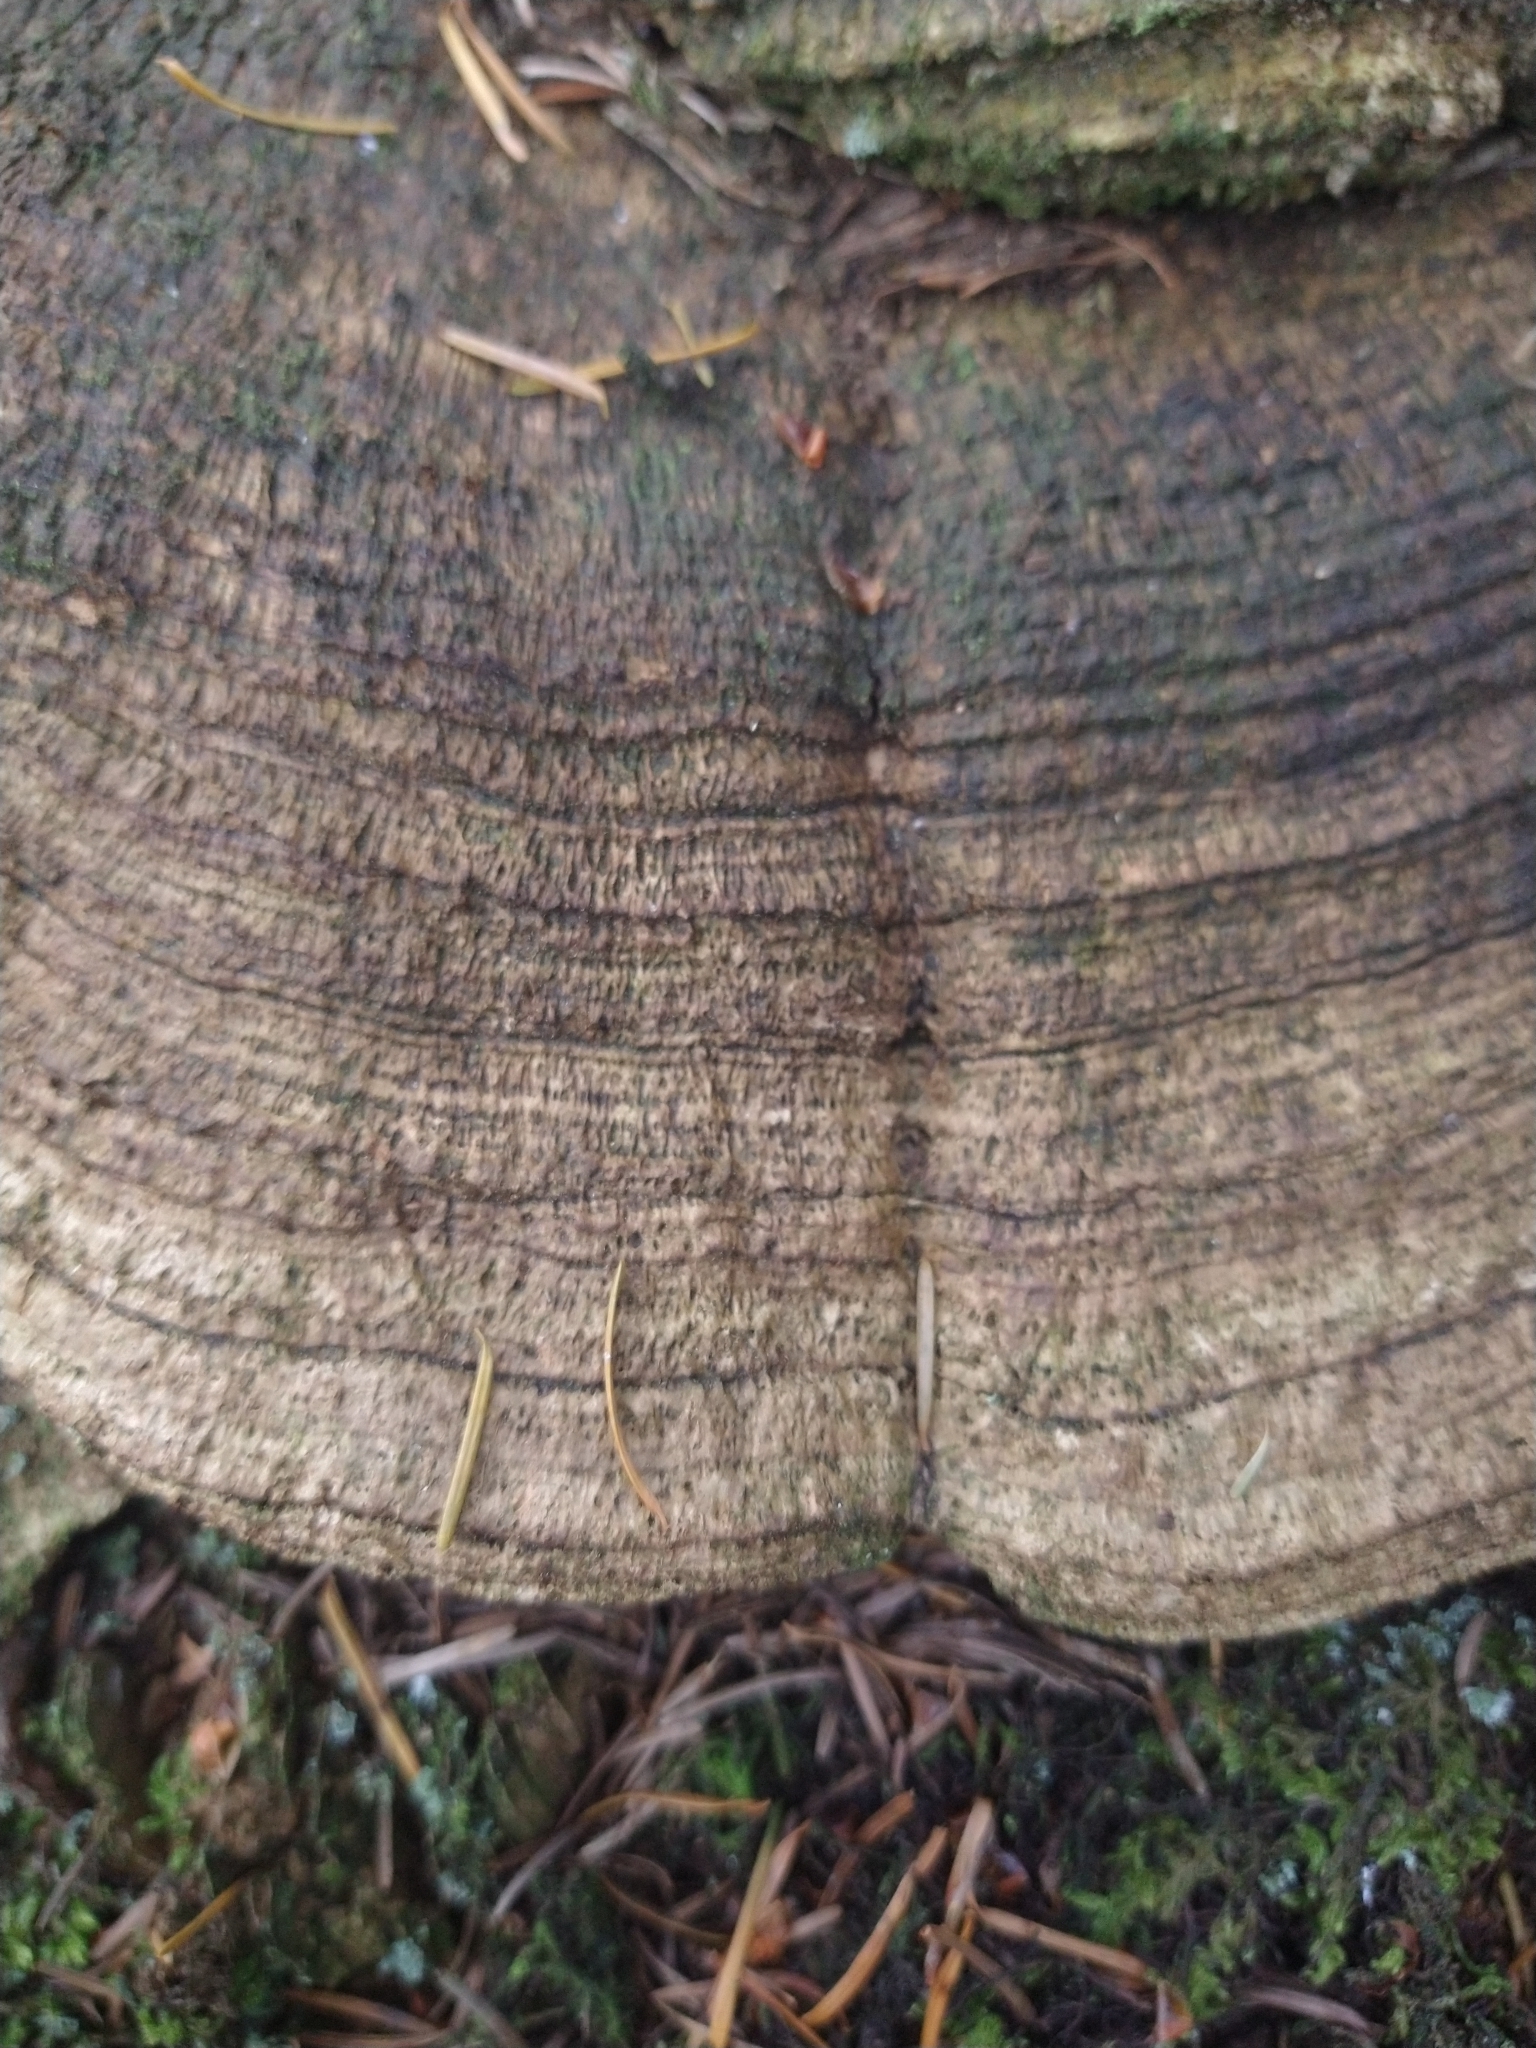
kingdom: Fungi
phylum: Basidiomycota
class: Agaricomycetes
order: Polyporales
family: Fomitopsidaceae
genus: Fomitopsis
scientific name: Fomitopsis
